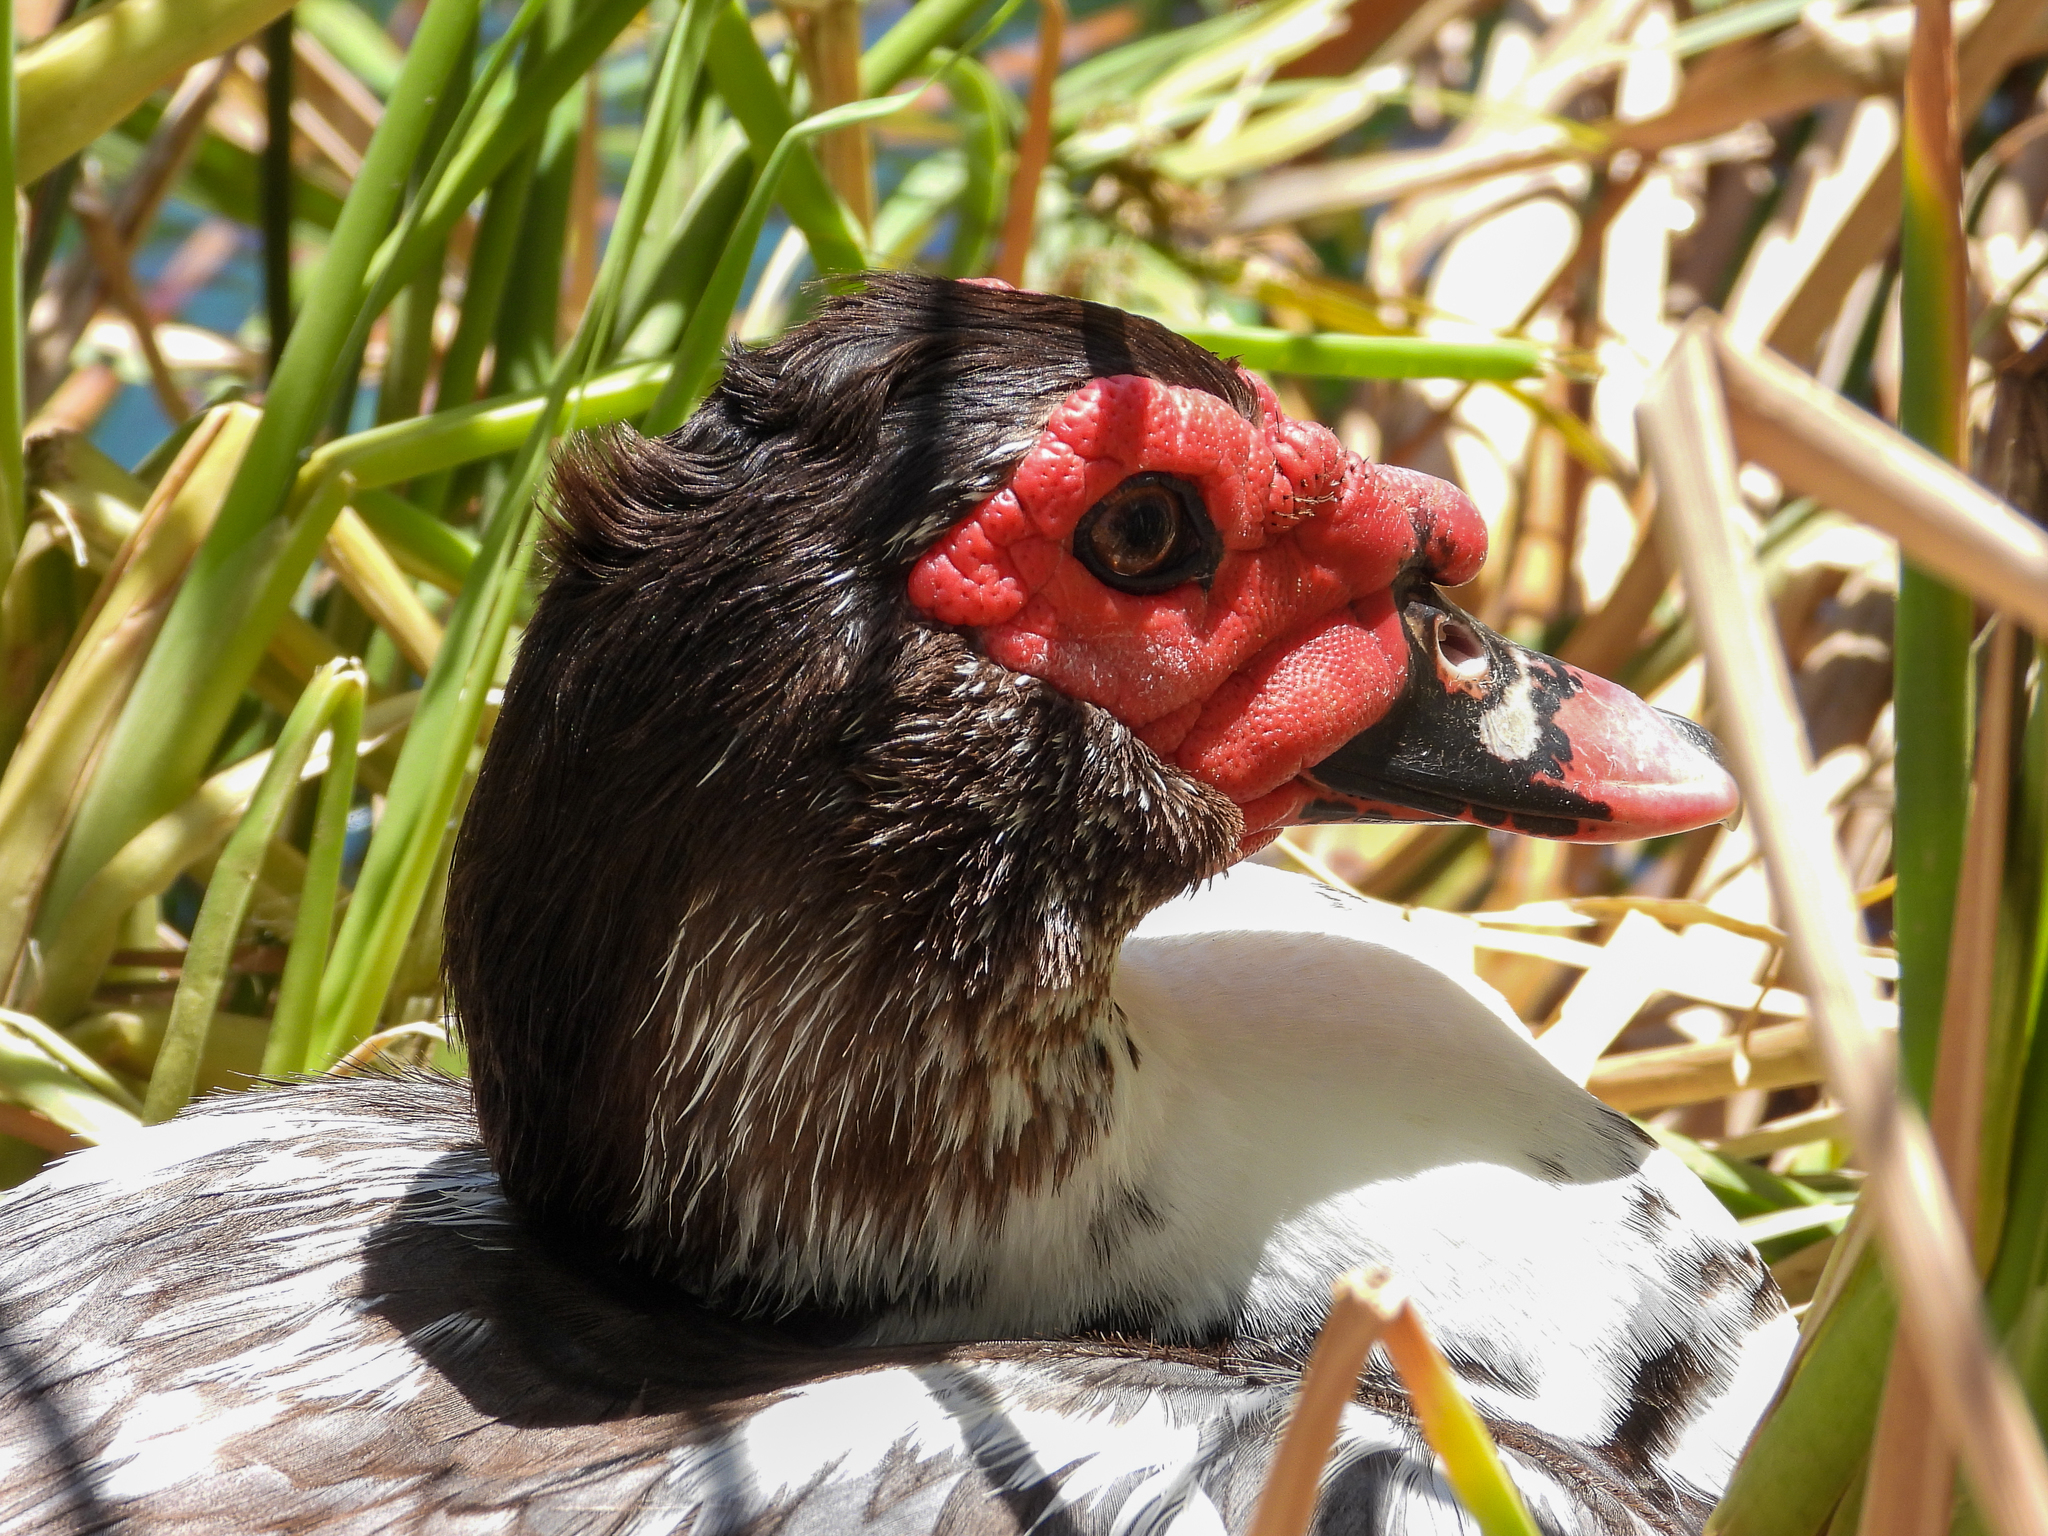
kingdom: Animalia
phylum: Chordata
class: Aves
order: Anseriformes
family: Anatidae
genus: Cairina
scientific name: Cairina moschata
